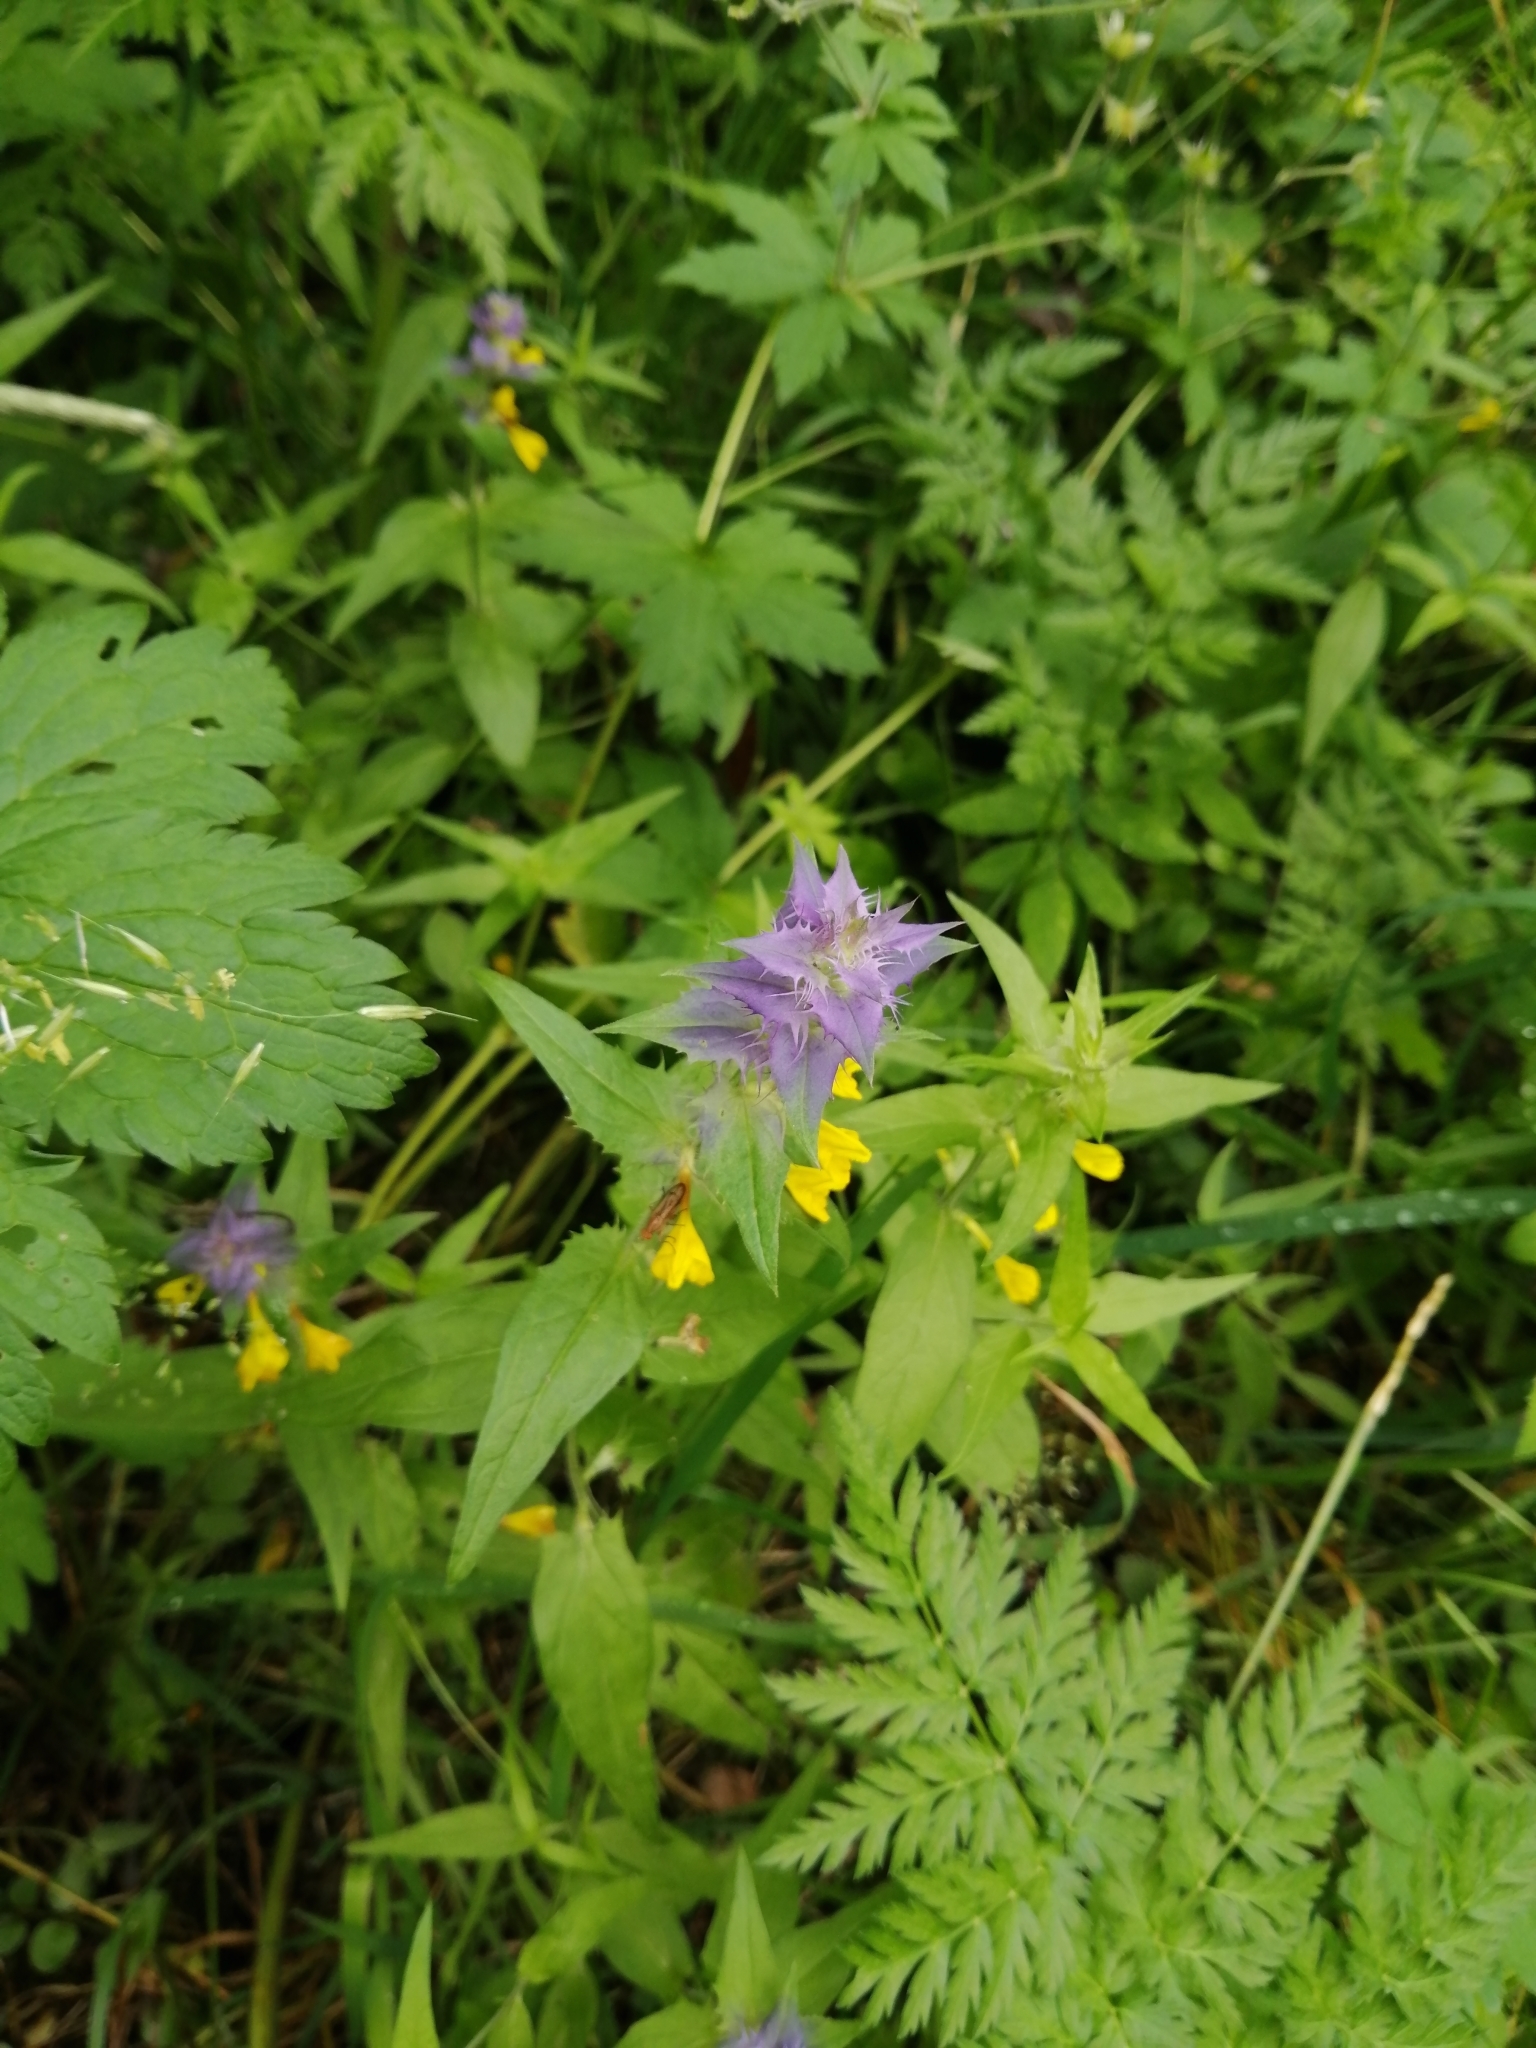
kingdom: Plantae
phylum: Tracheophyta
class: Magnoliopsida
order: Lamiales
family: Orobanchaceae
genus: Melampyrum
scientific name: Melampyrum nemorosum
